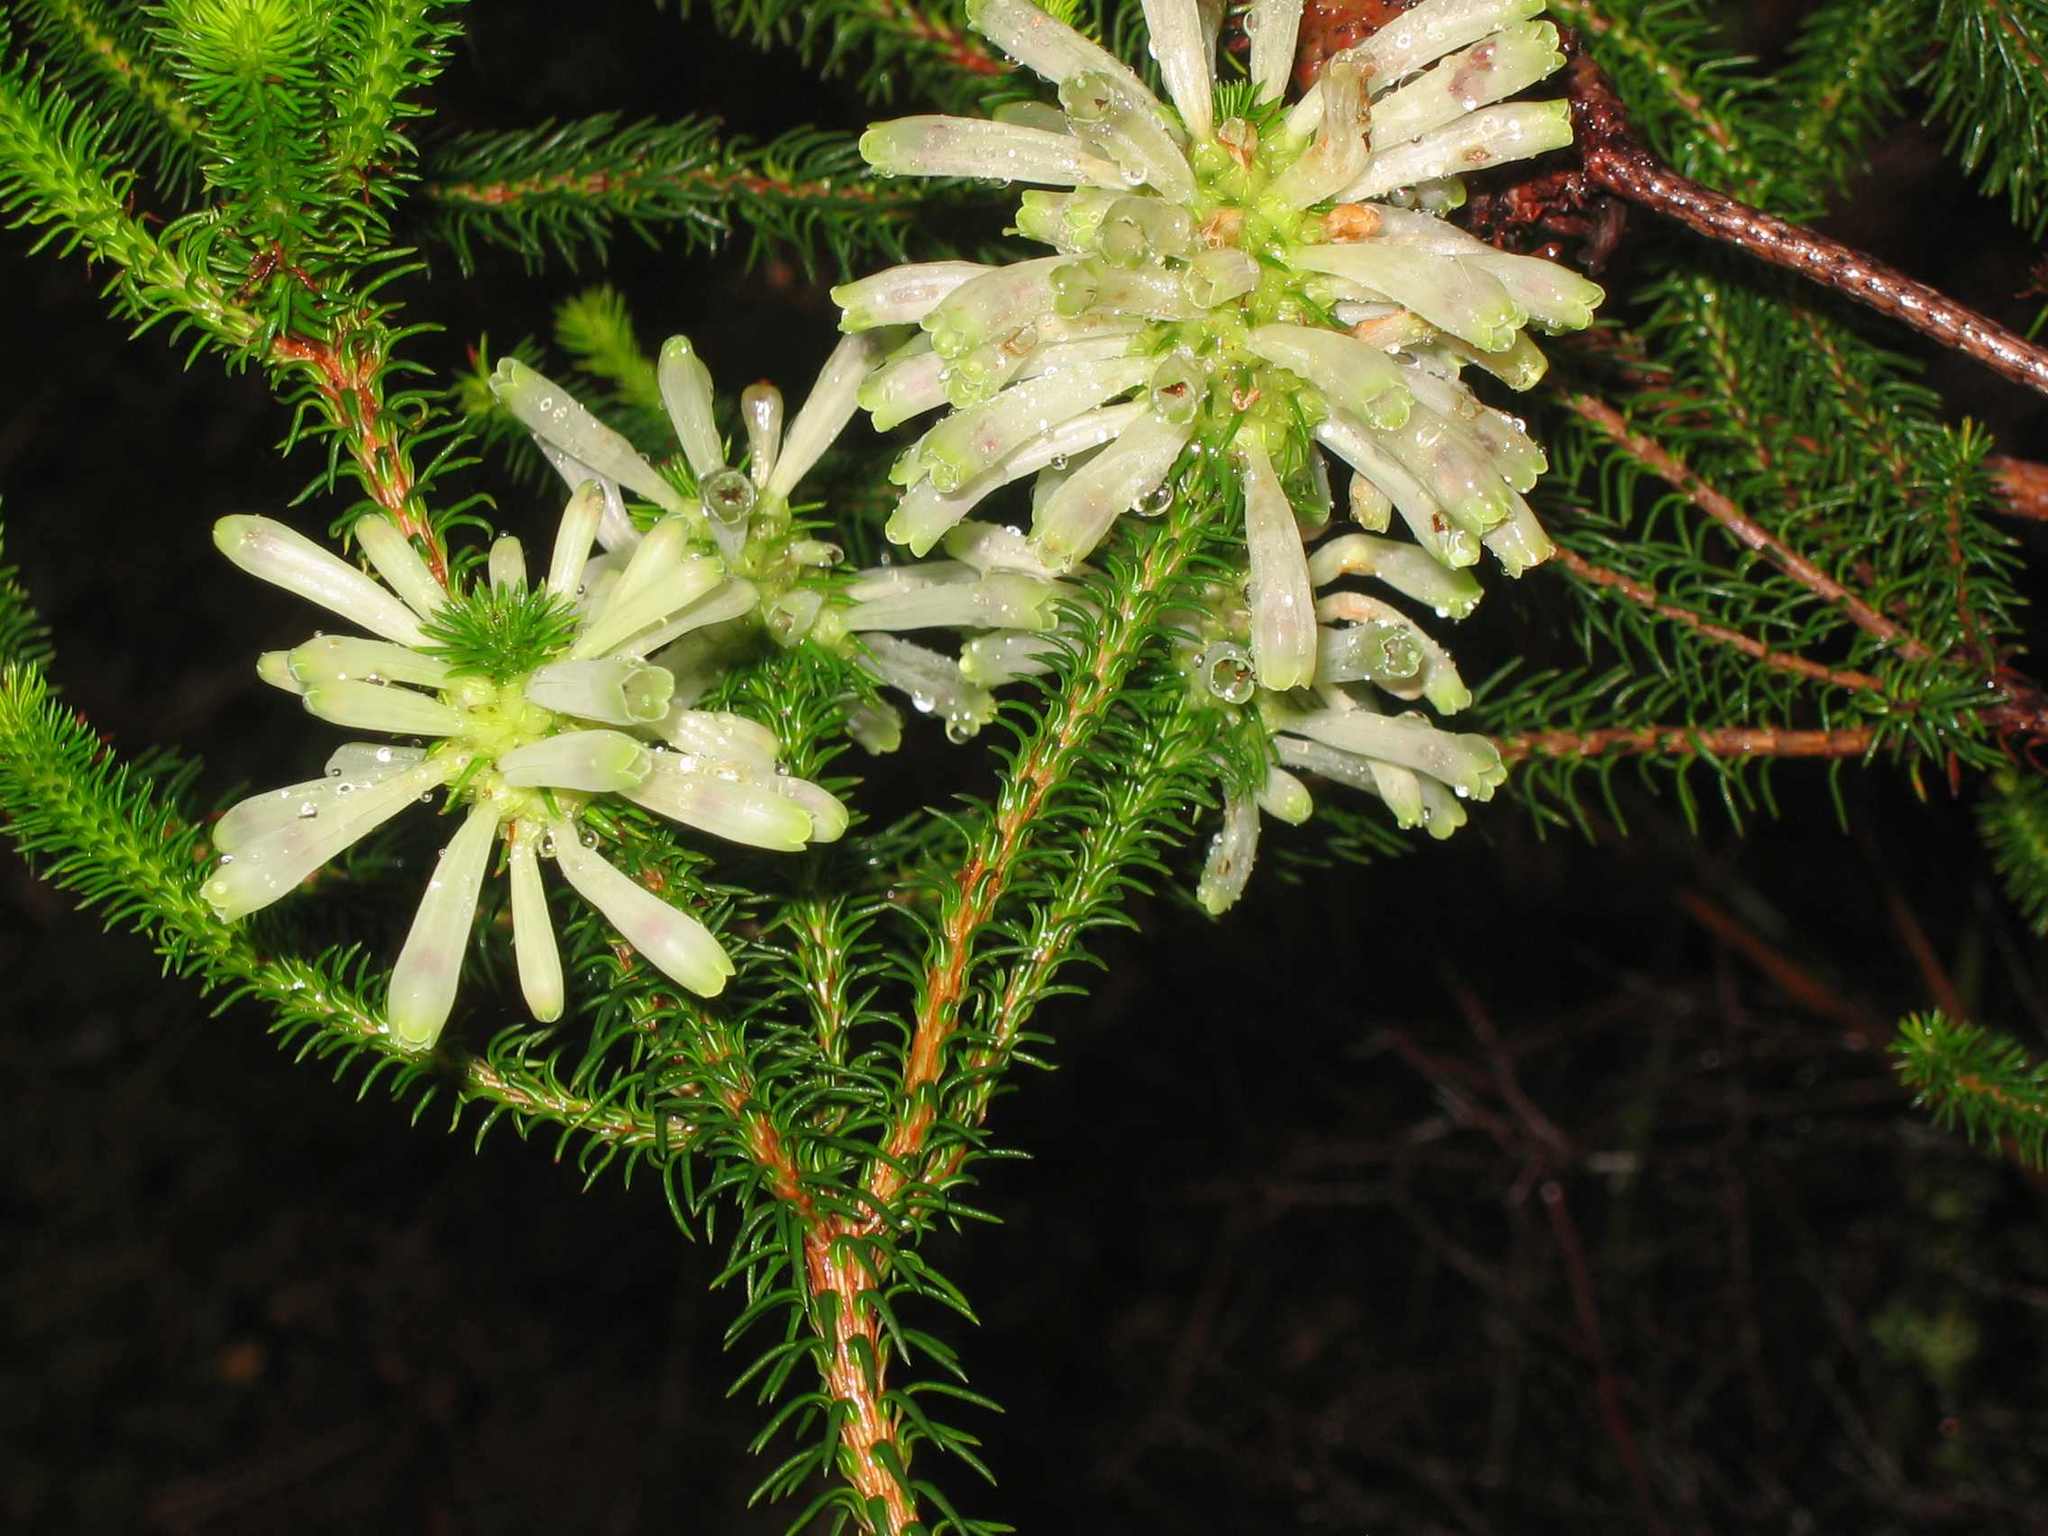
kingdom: Plantae
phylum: Tracheophyta
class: Magnoliopsida
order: Ericales
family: Ericaceae
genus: Erica
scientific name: Erica sessiliflora
